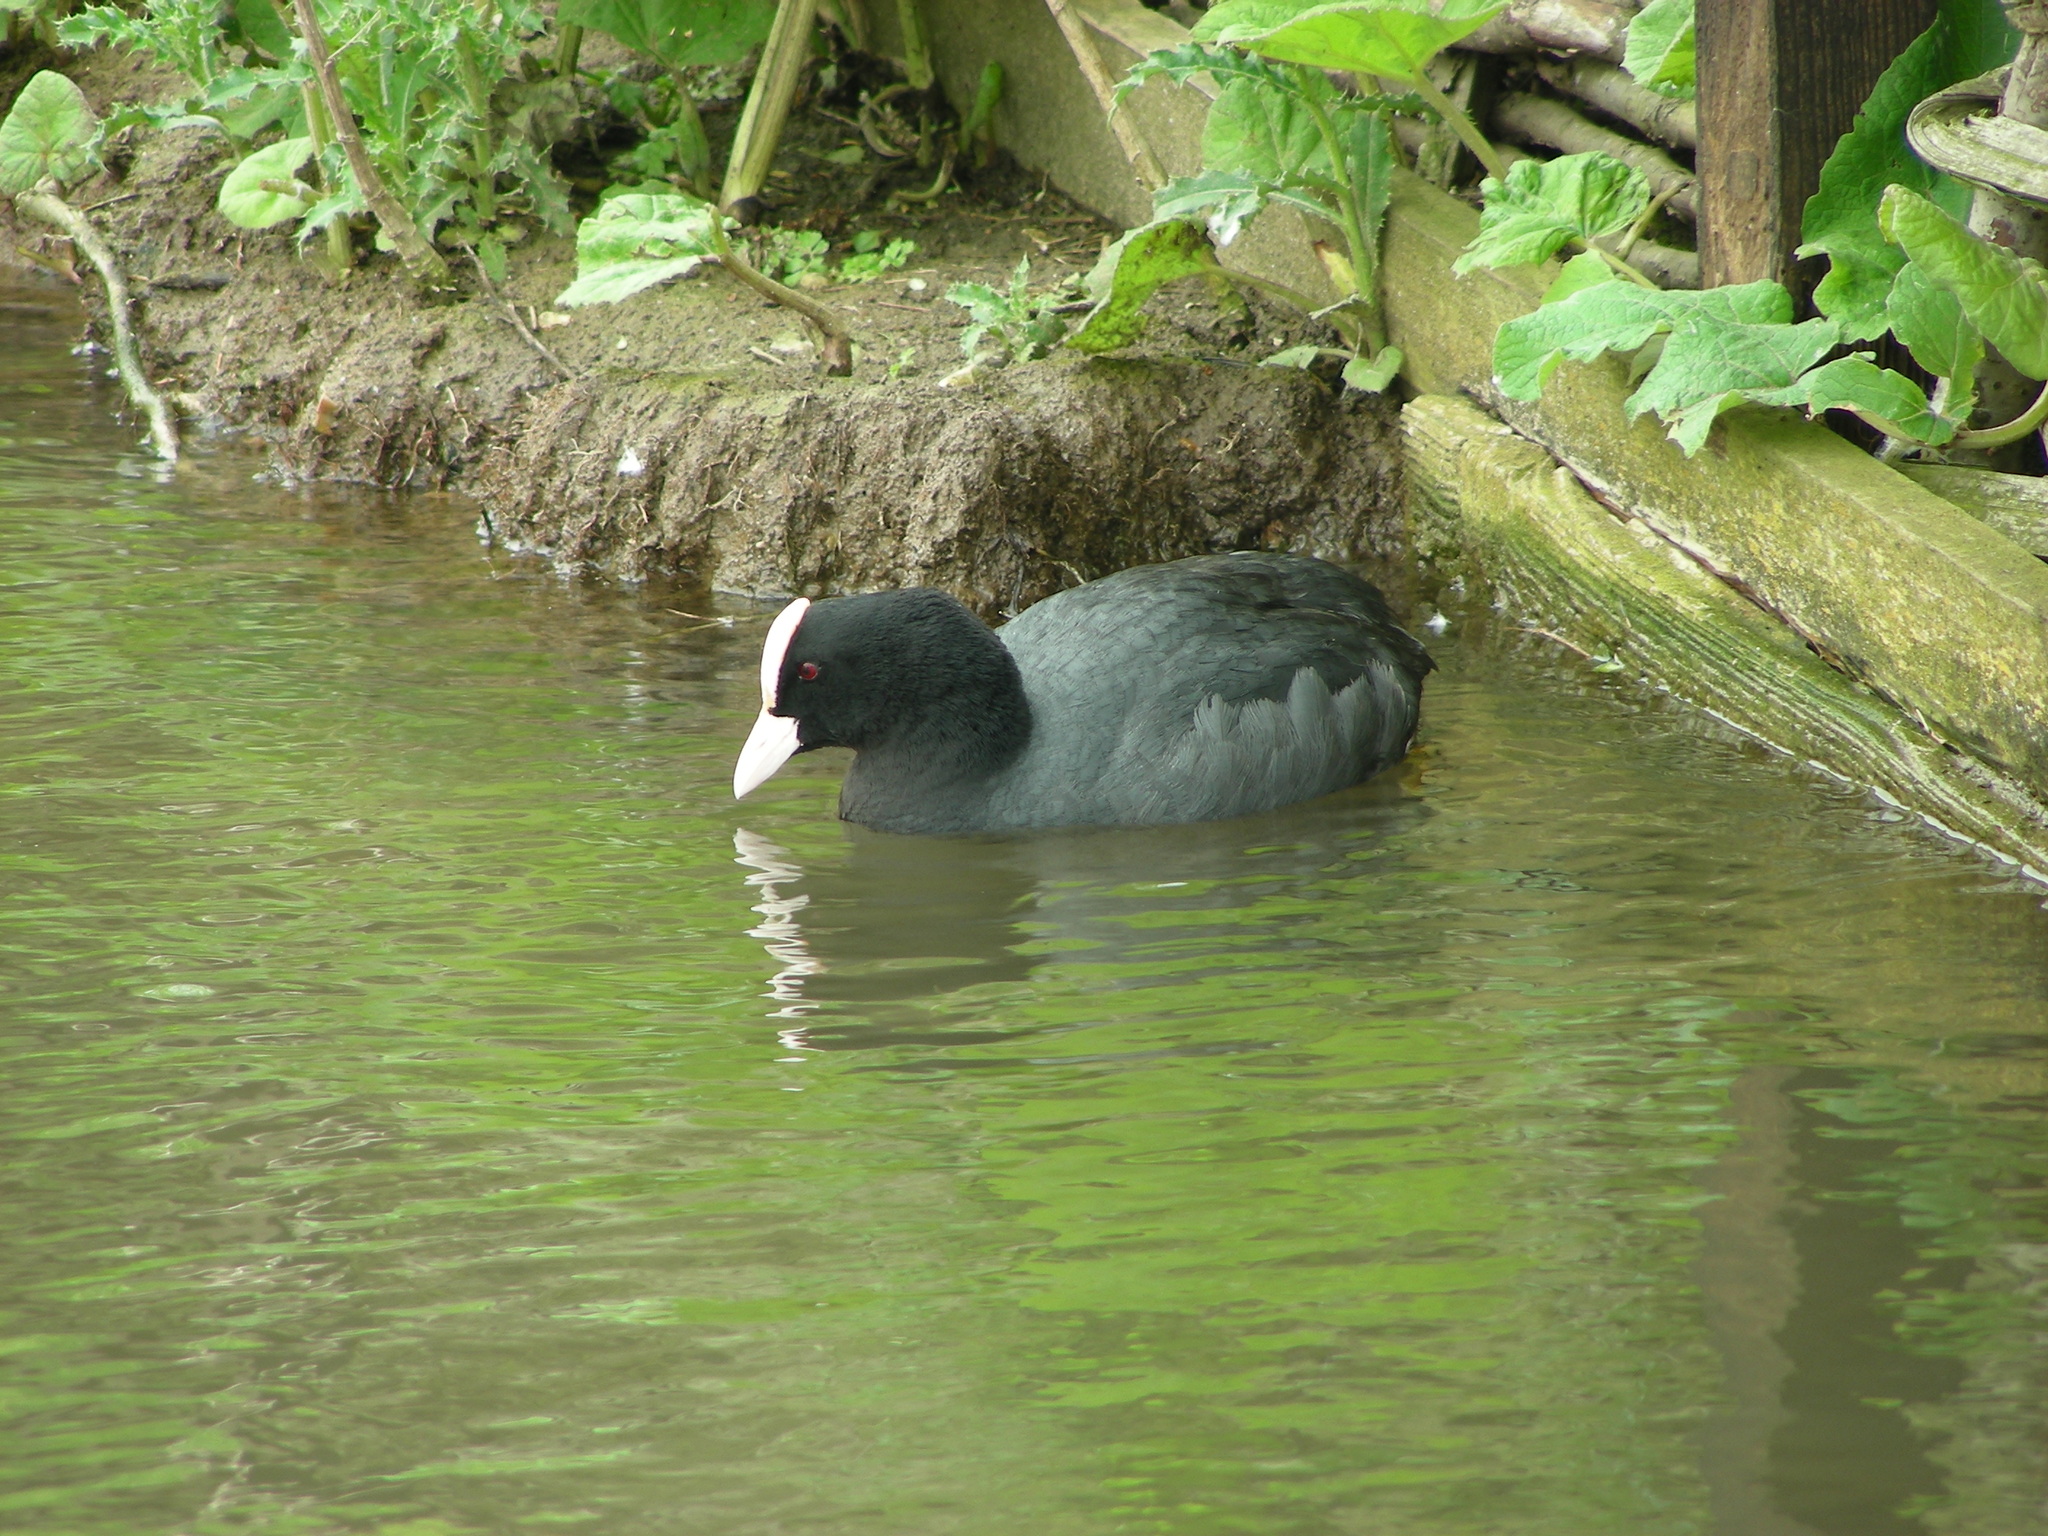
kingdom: Animalia
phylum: Chordata
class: Aves
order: Gruiformes
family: Rallidae
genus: Fulica
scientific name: Fulica atra
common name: Eurasian coot
